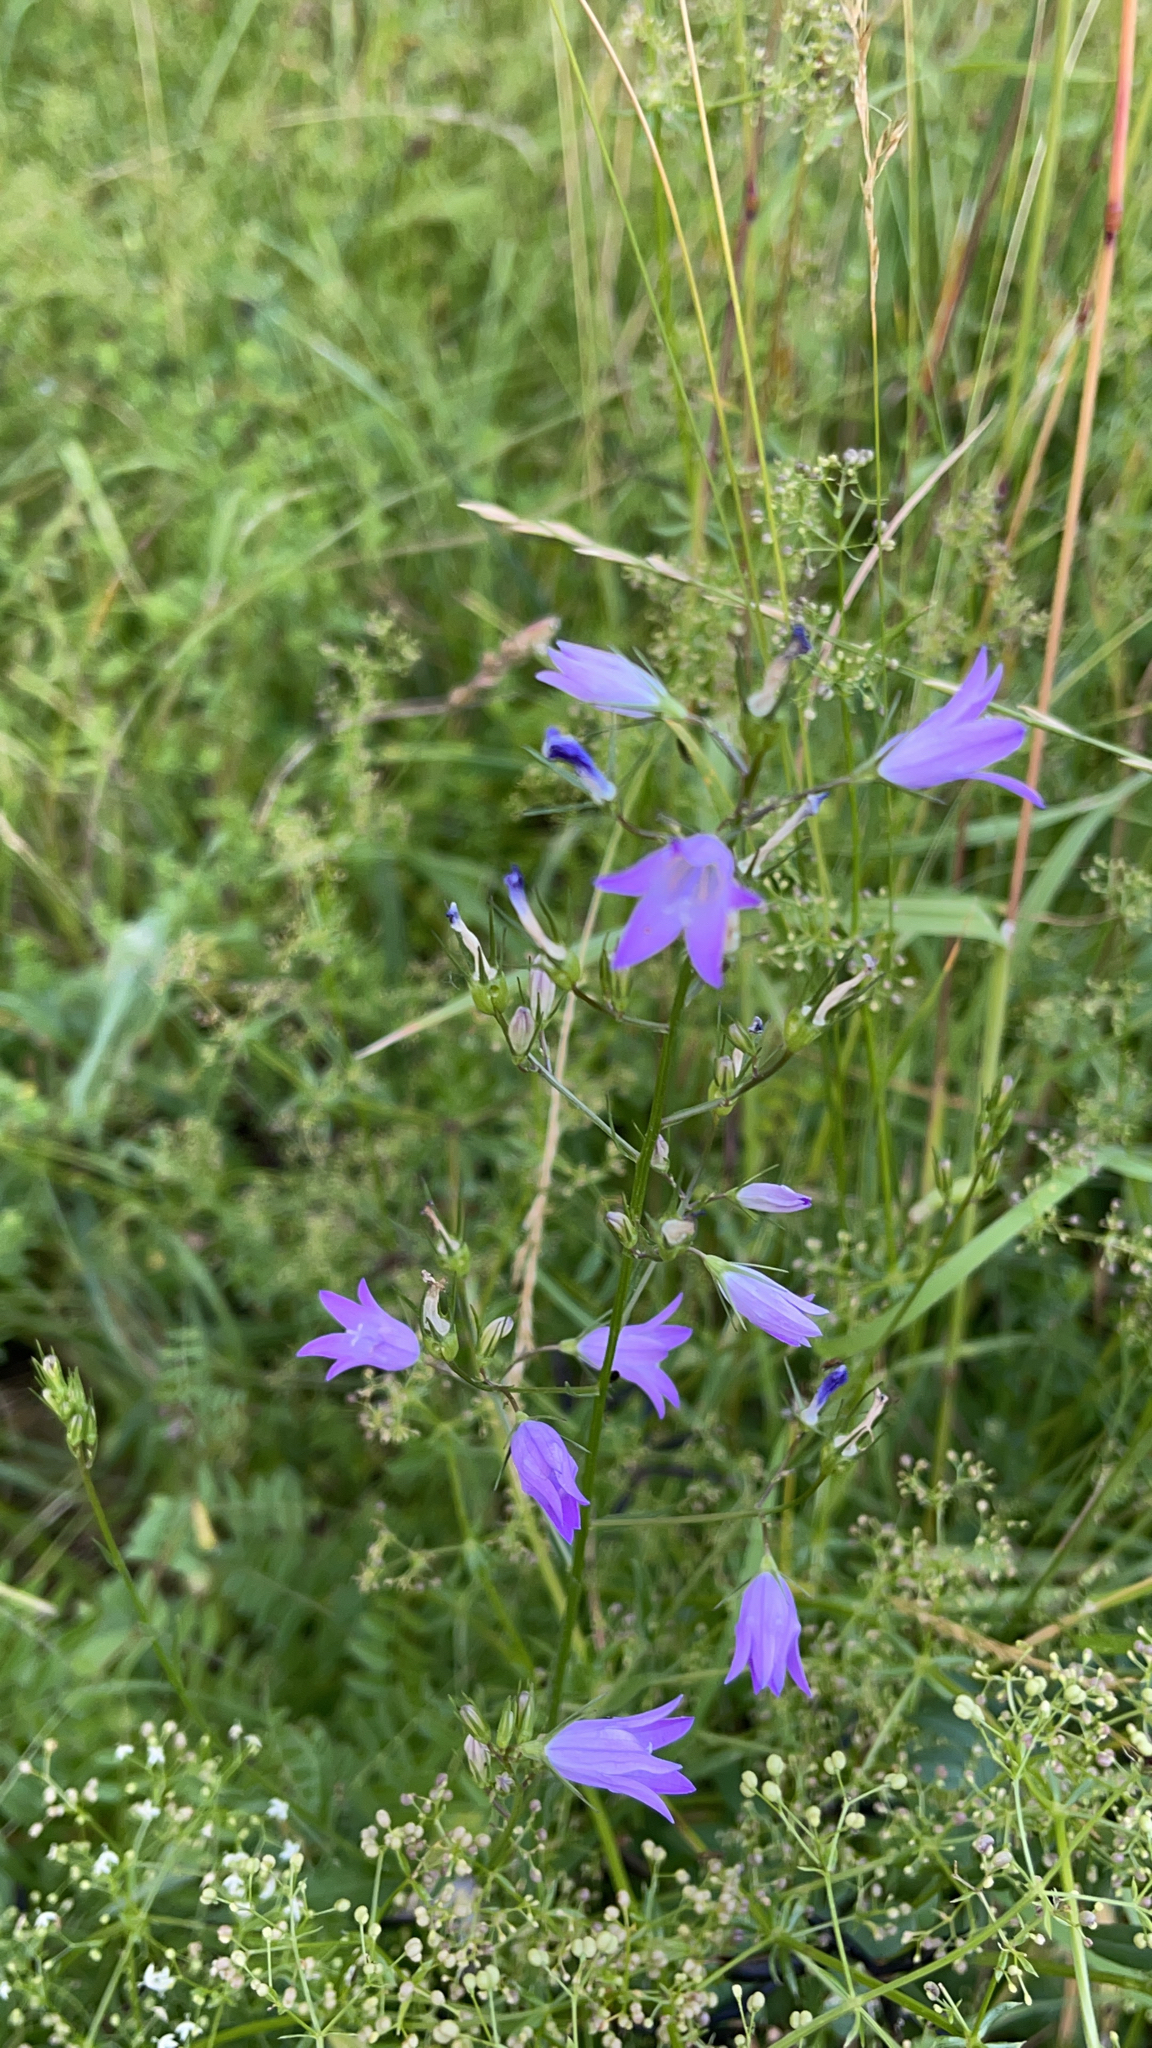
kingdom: Plantae
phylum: Tracheophyta
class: Magnoliopsida
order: Asterales
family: Campanulaceae
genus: Campanula
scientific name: Campanula rapunculus
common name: Rampion bellflower
